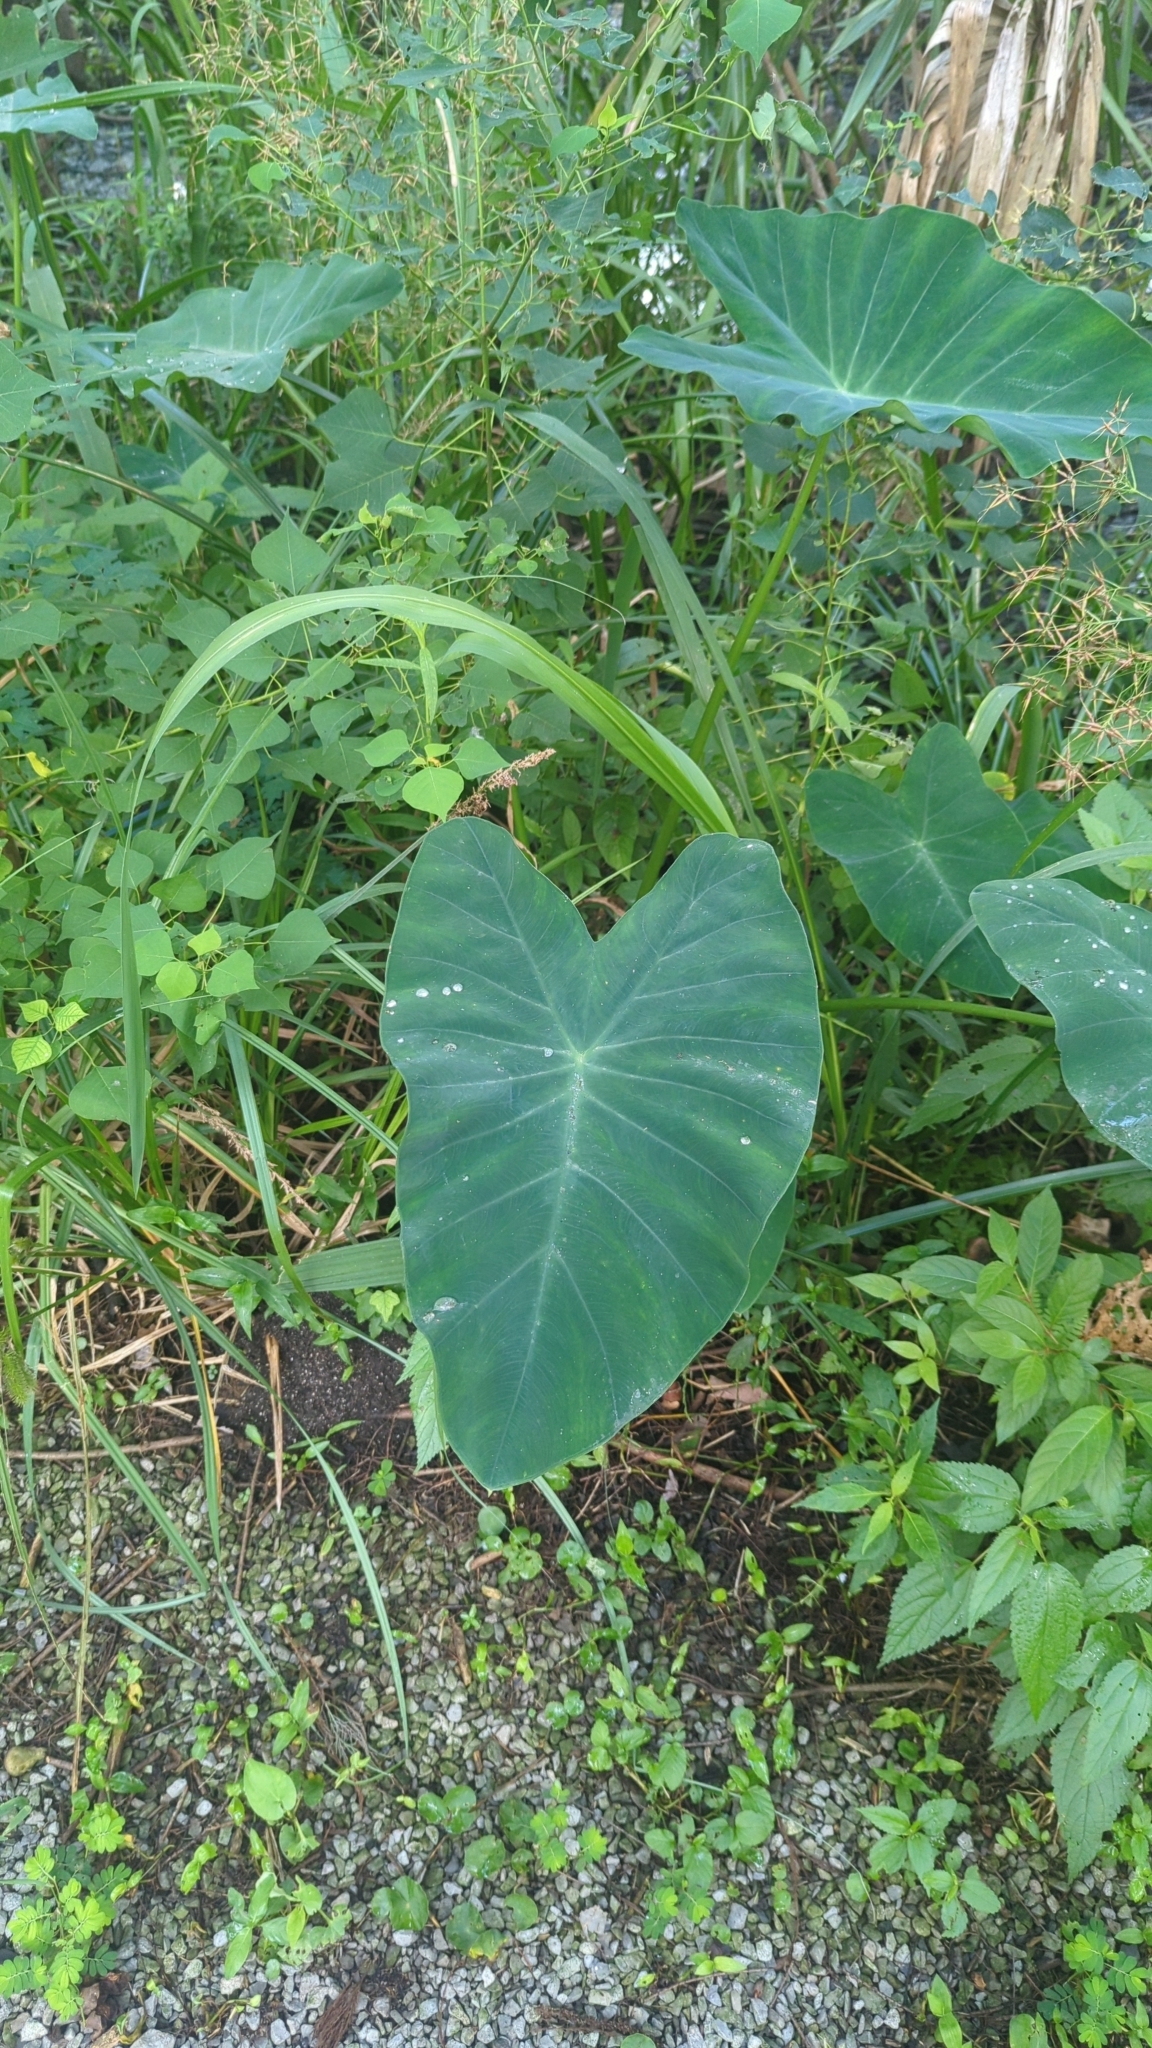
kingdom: Plantae
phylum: Tracheophyta
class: Liliopsida
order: Alismatales
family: Araceae
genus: Colocasia
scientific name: Colocasia esculenta
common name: Taro
